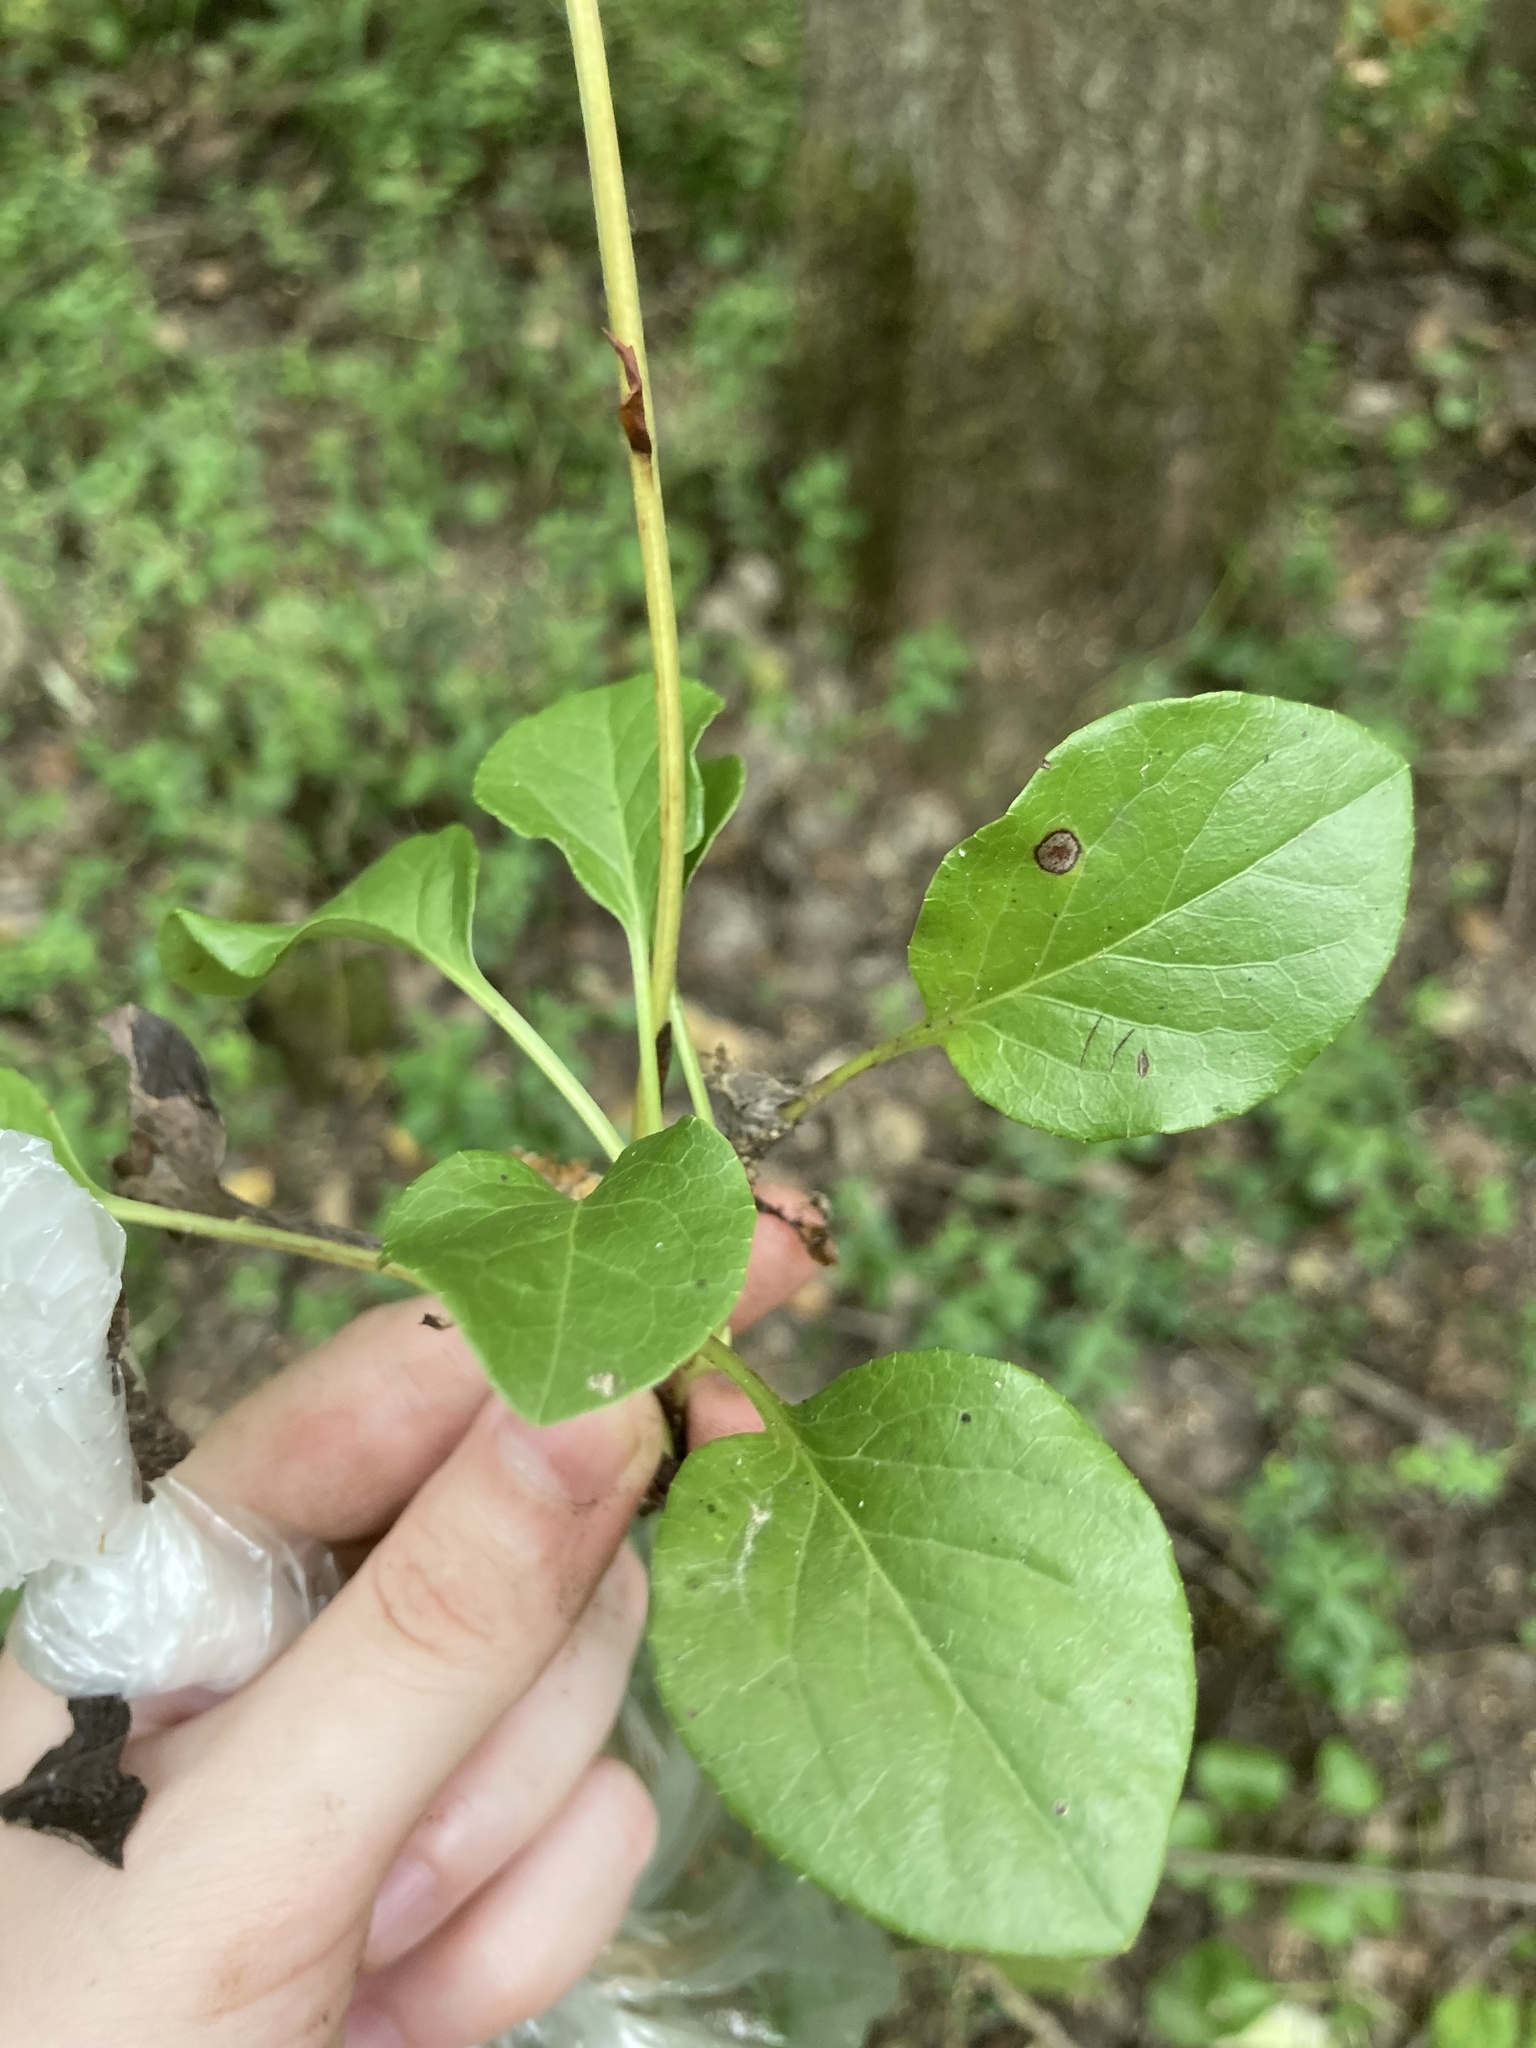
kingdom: Plantae
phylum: Tracheophyta
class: Magnoliopsida
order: Ericales
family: Ericaceae
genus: Pyrola
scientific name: Pyrola rotundifolia
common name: Round-leaved wintergreen
